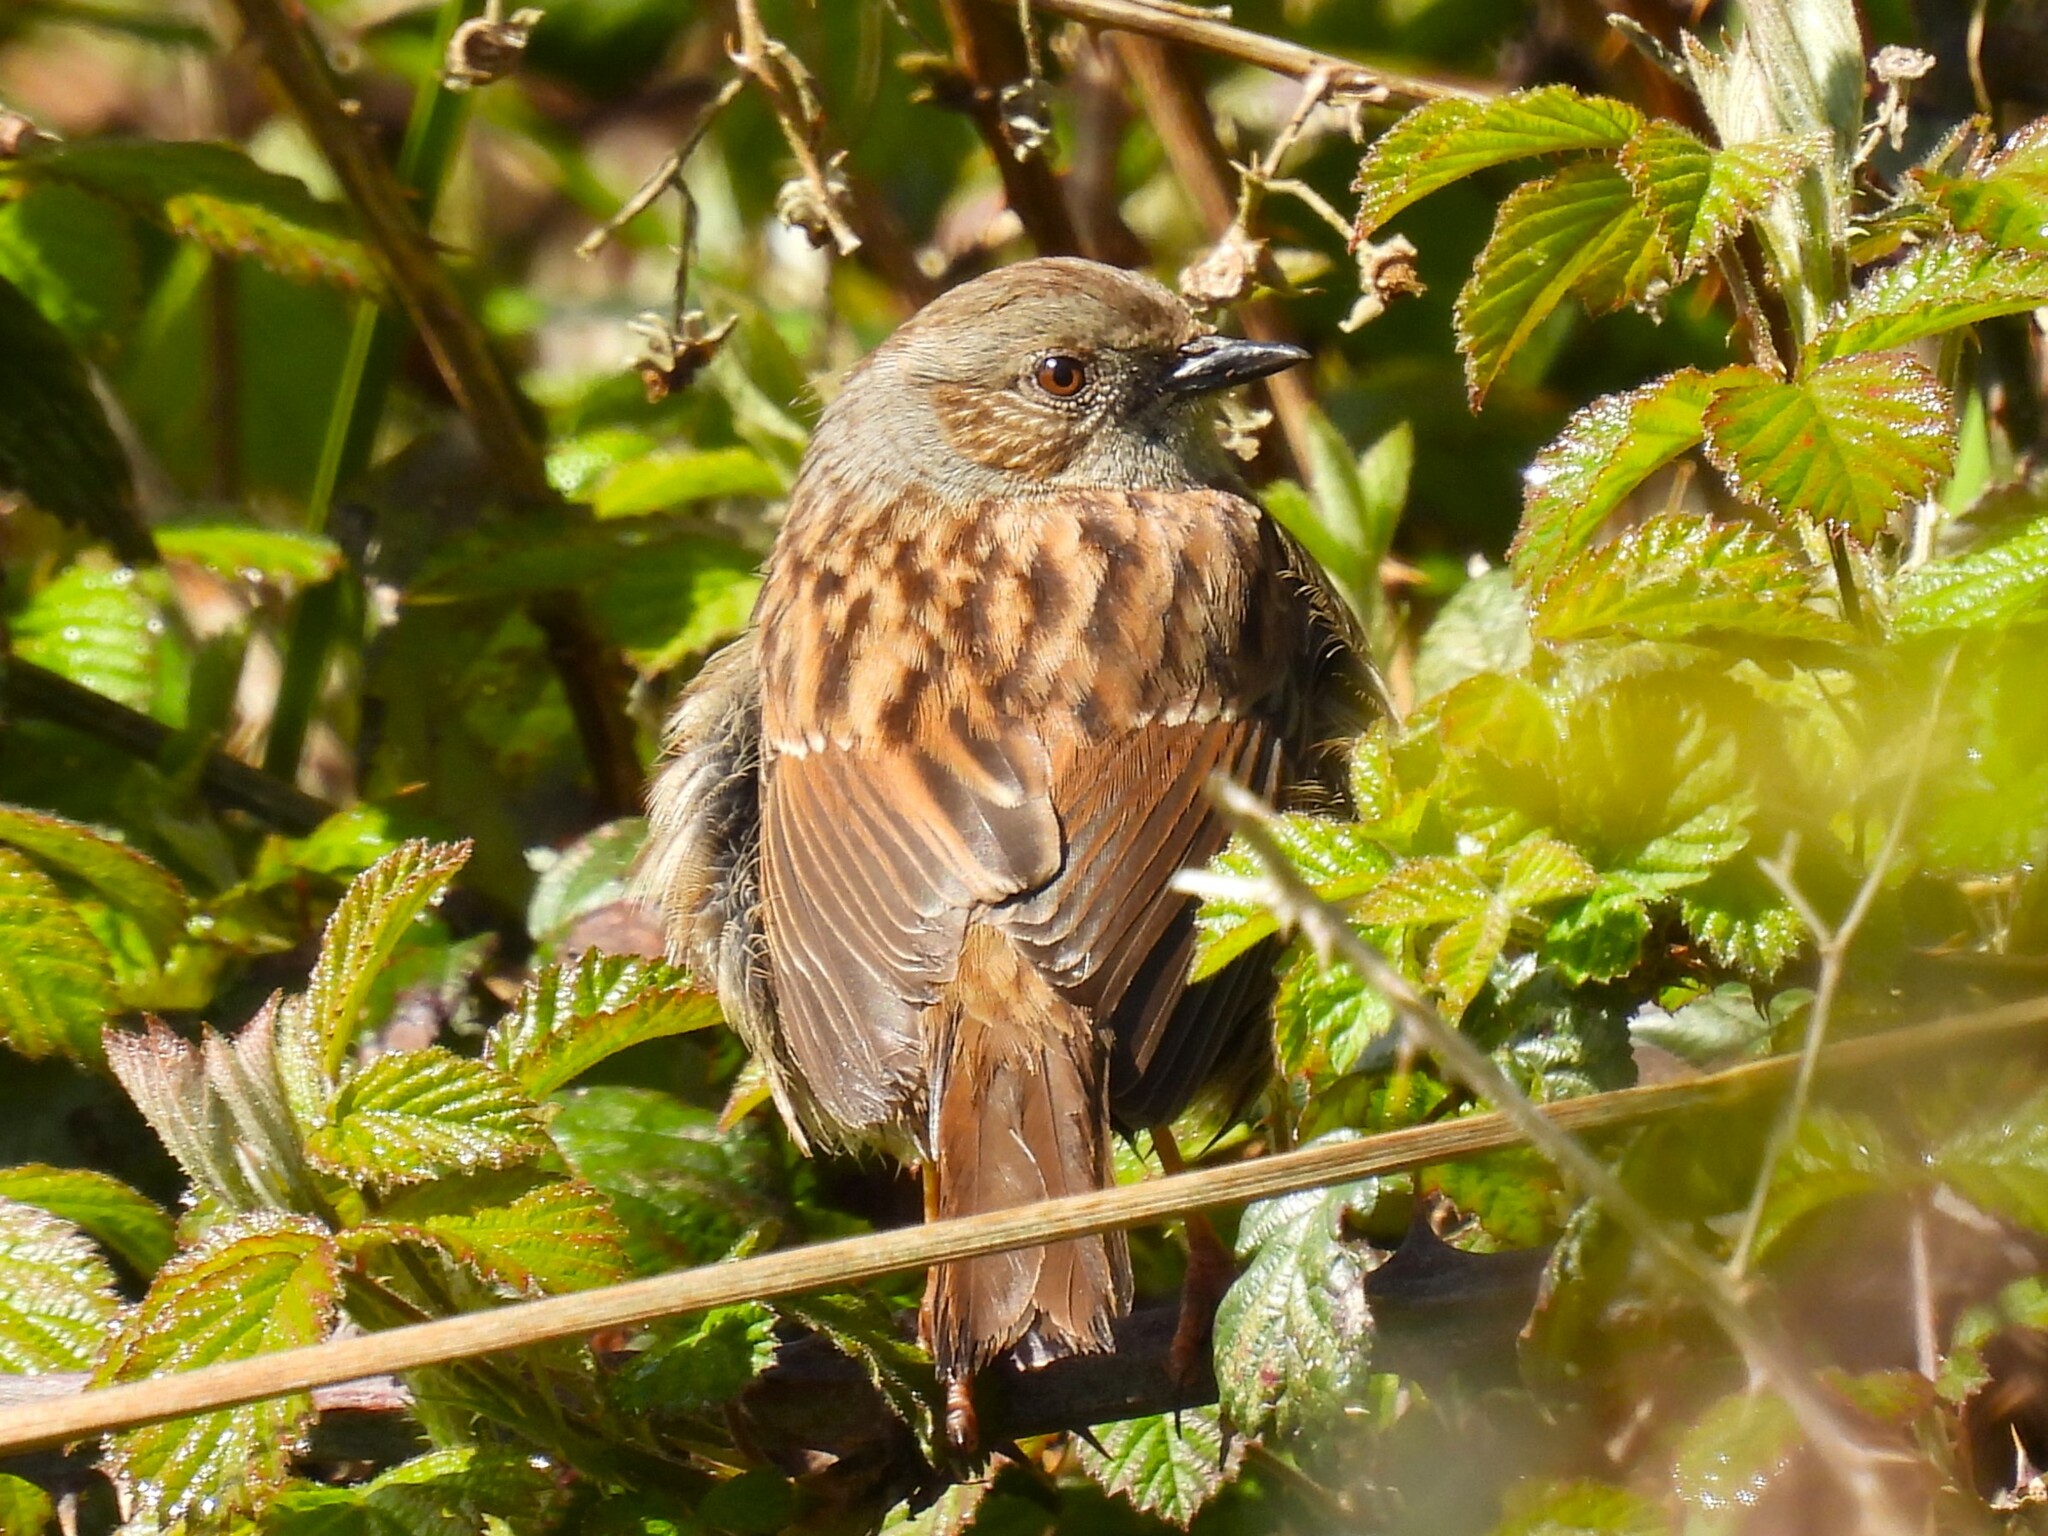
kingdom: Animalia
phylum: Chordata
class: Aves
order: Passeriformes
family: Prunellidae
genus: Prunella
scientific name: Prunella modularis
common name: Dunnock
